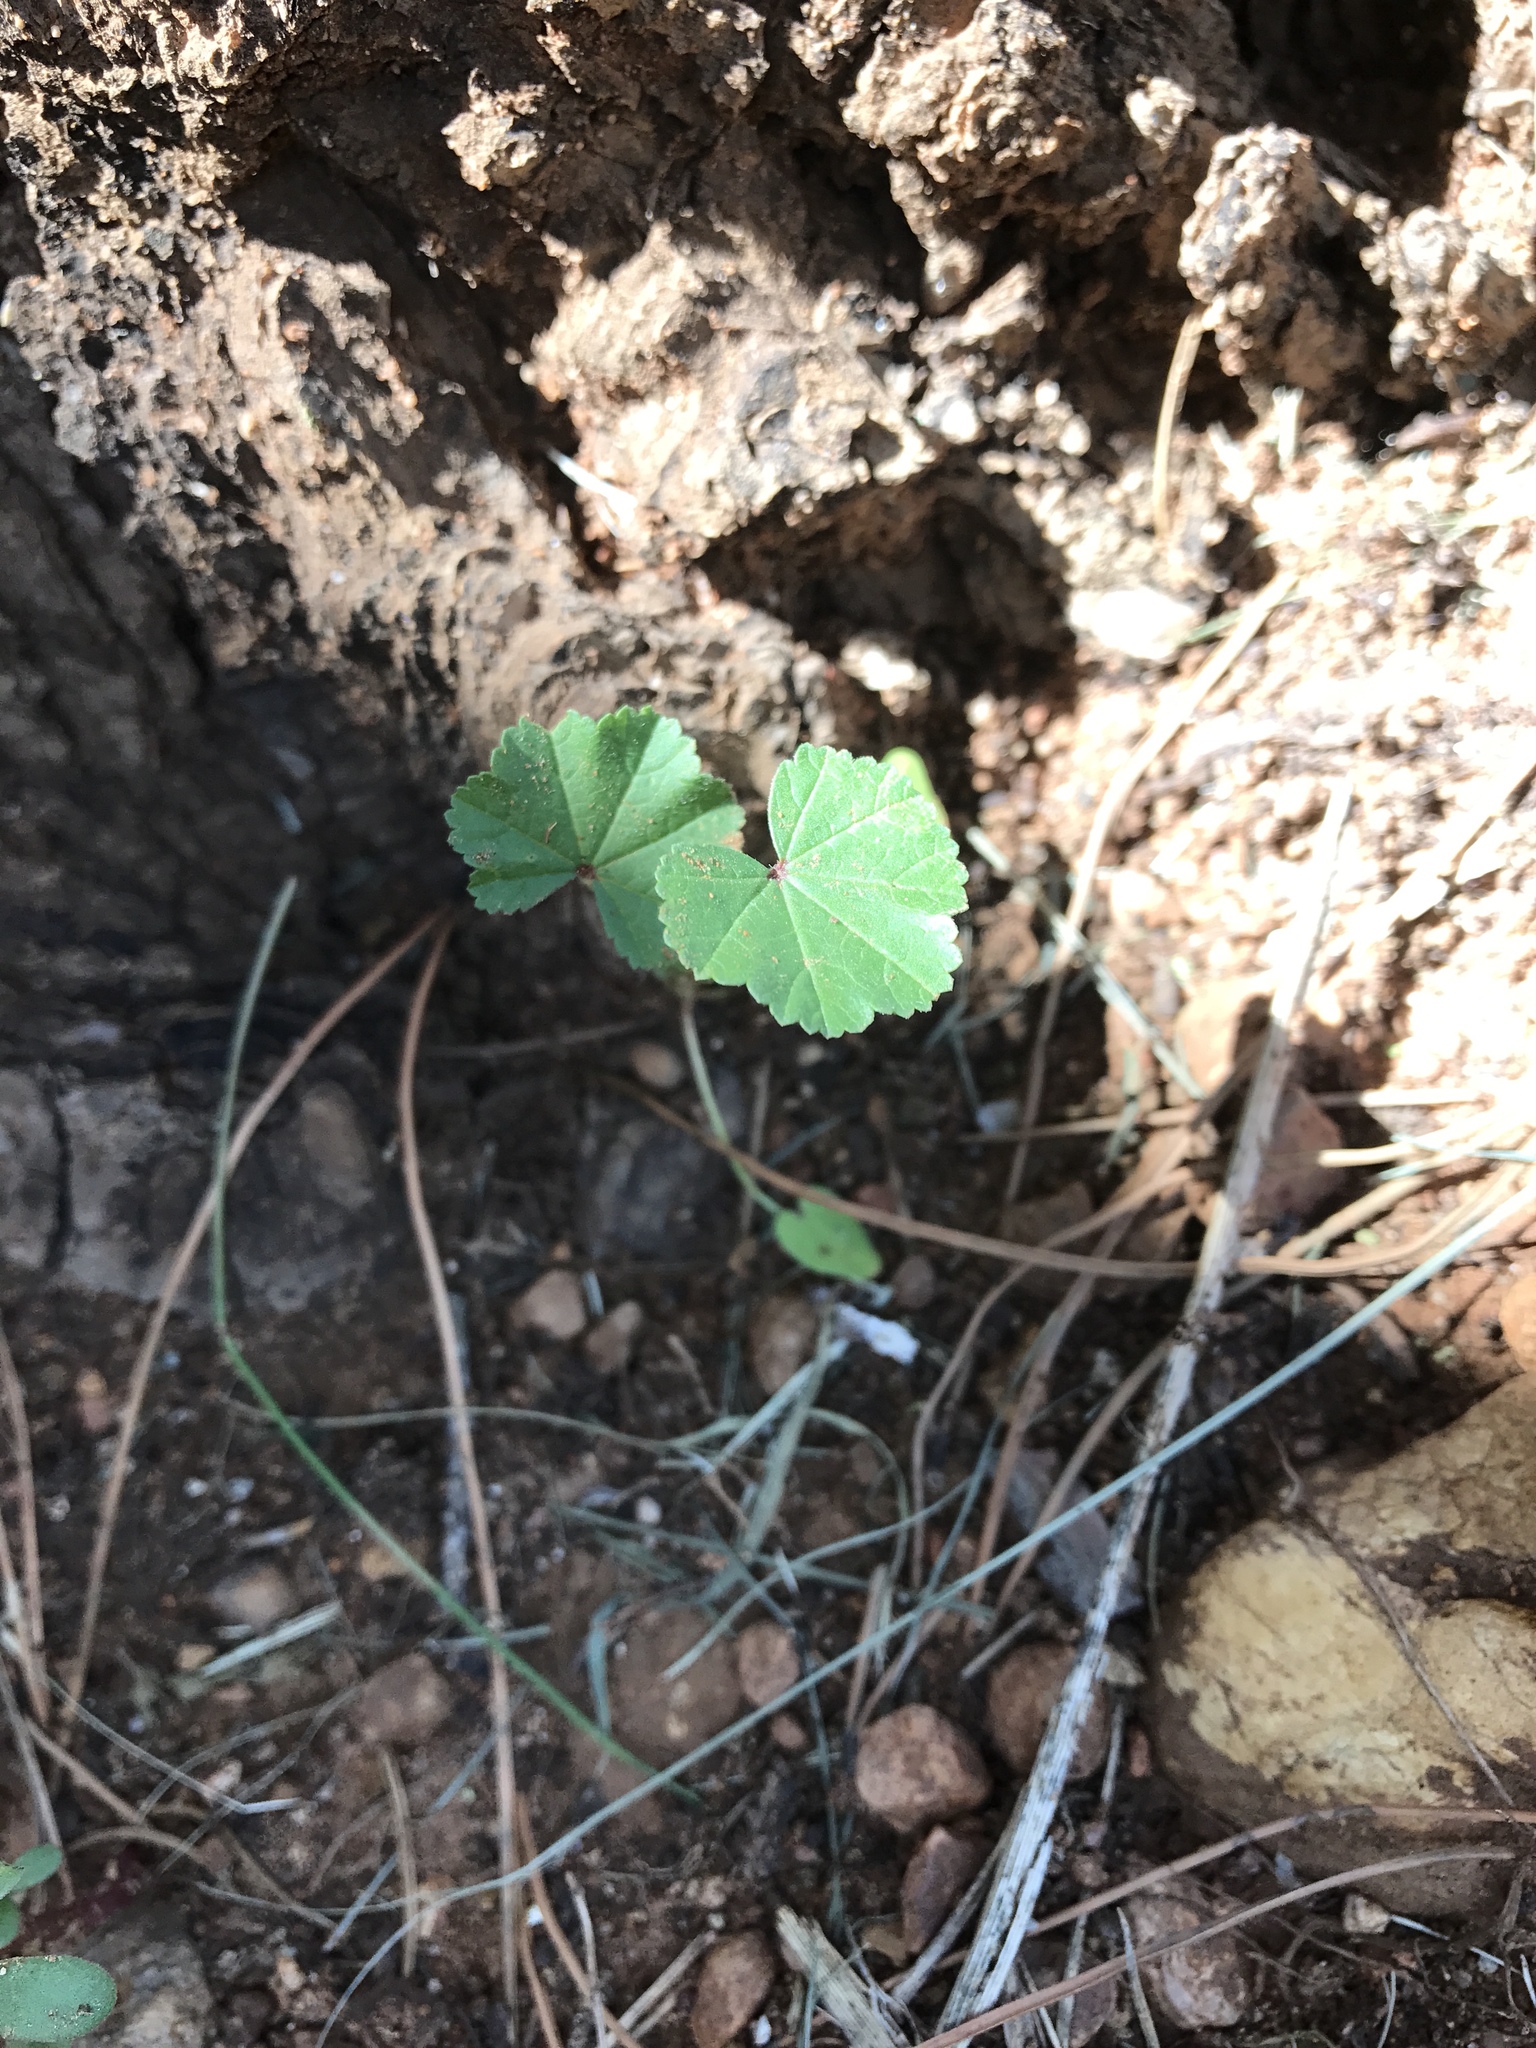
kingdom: Plantae
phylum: Tracheophyta
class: Magnoliopsida
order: Malvales
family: Malvaceae
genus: Malva
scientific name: Malva parviflora
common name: Least mallow
